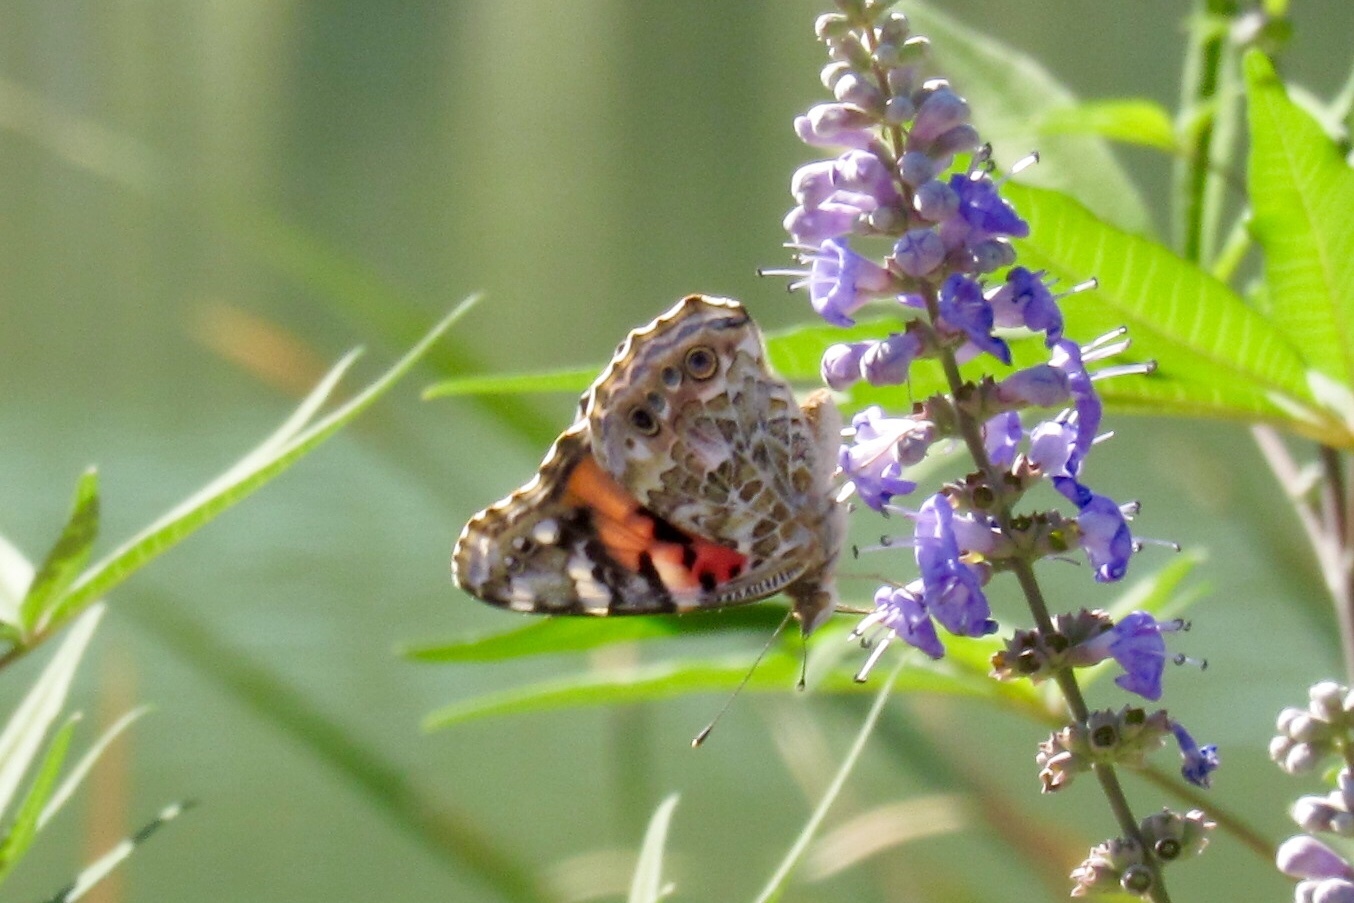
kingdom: Animalia
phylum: Arthropoda
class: Insecta
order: Lepidoptera
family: Nymphalidae
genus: Vanessa
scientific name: Vanessa cardui
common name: Painted lady
